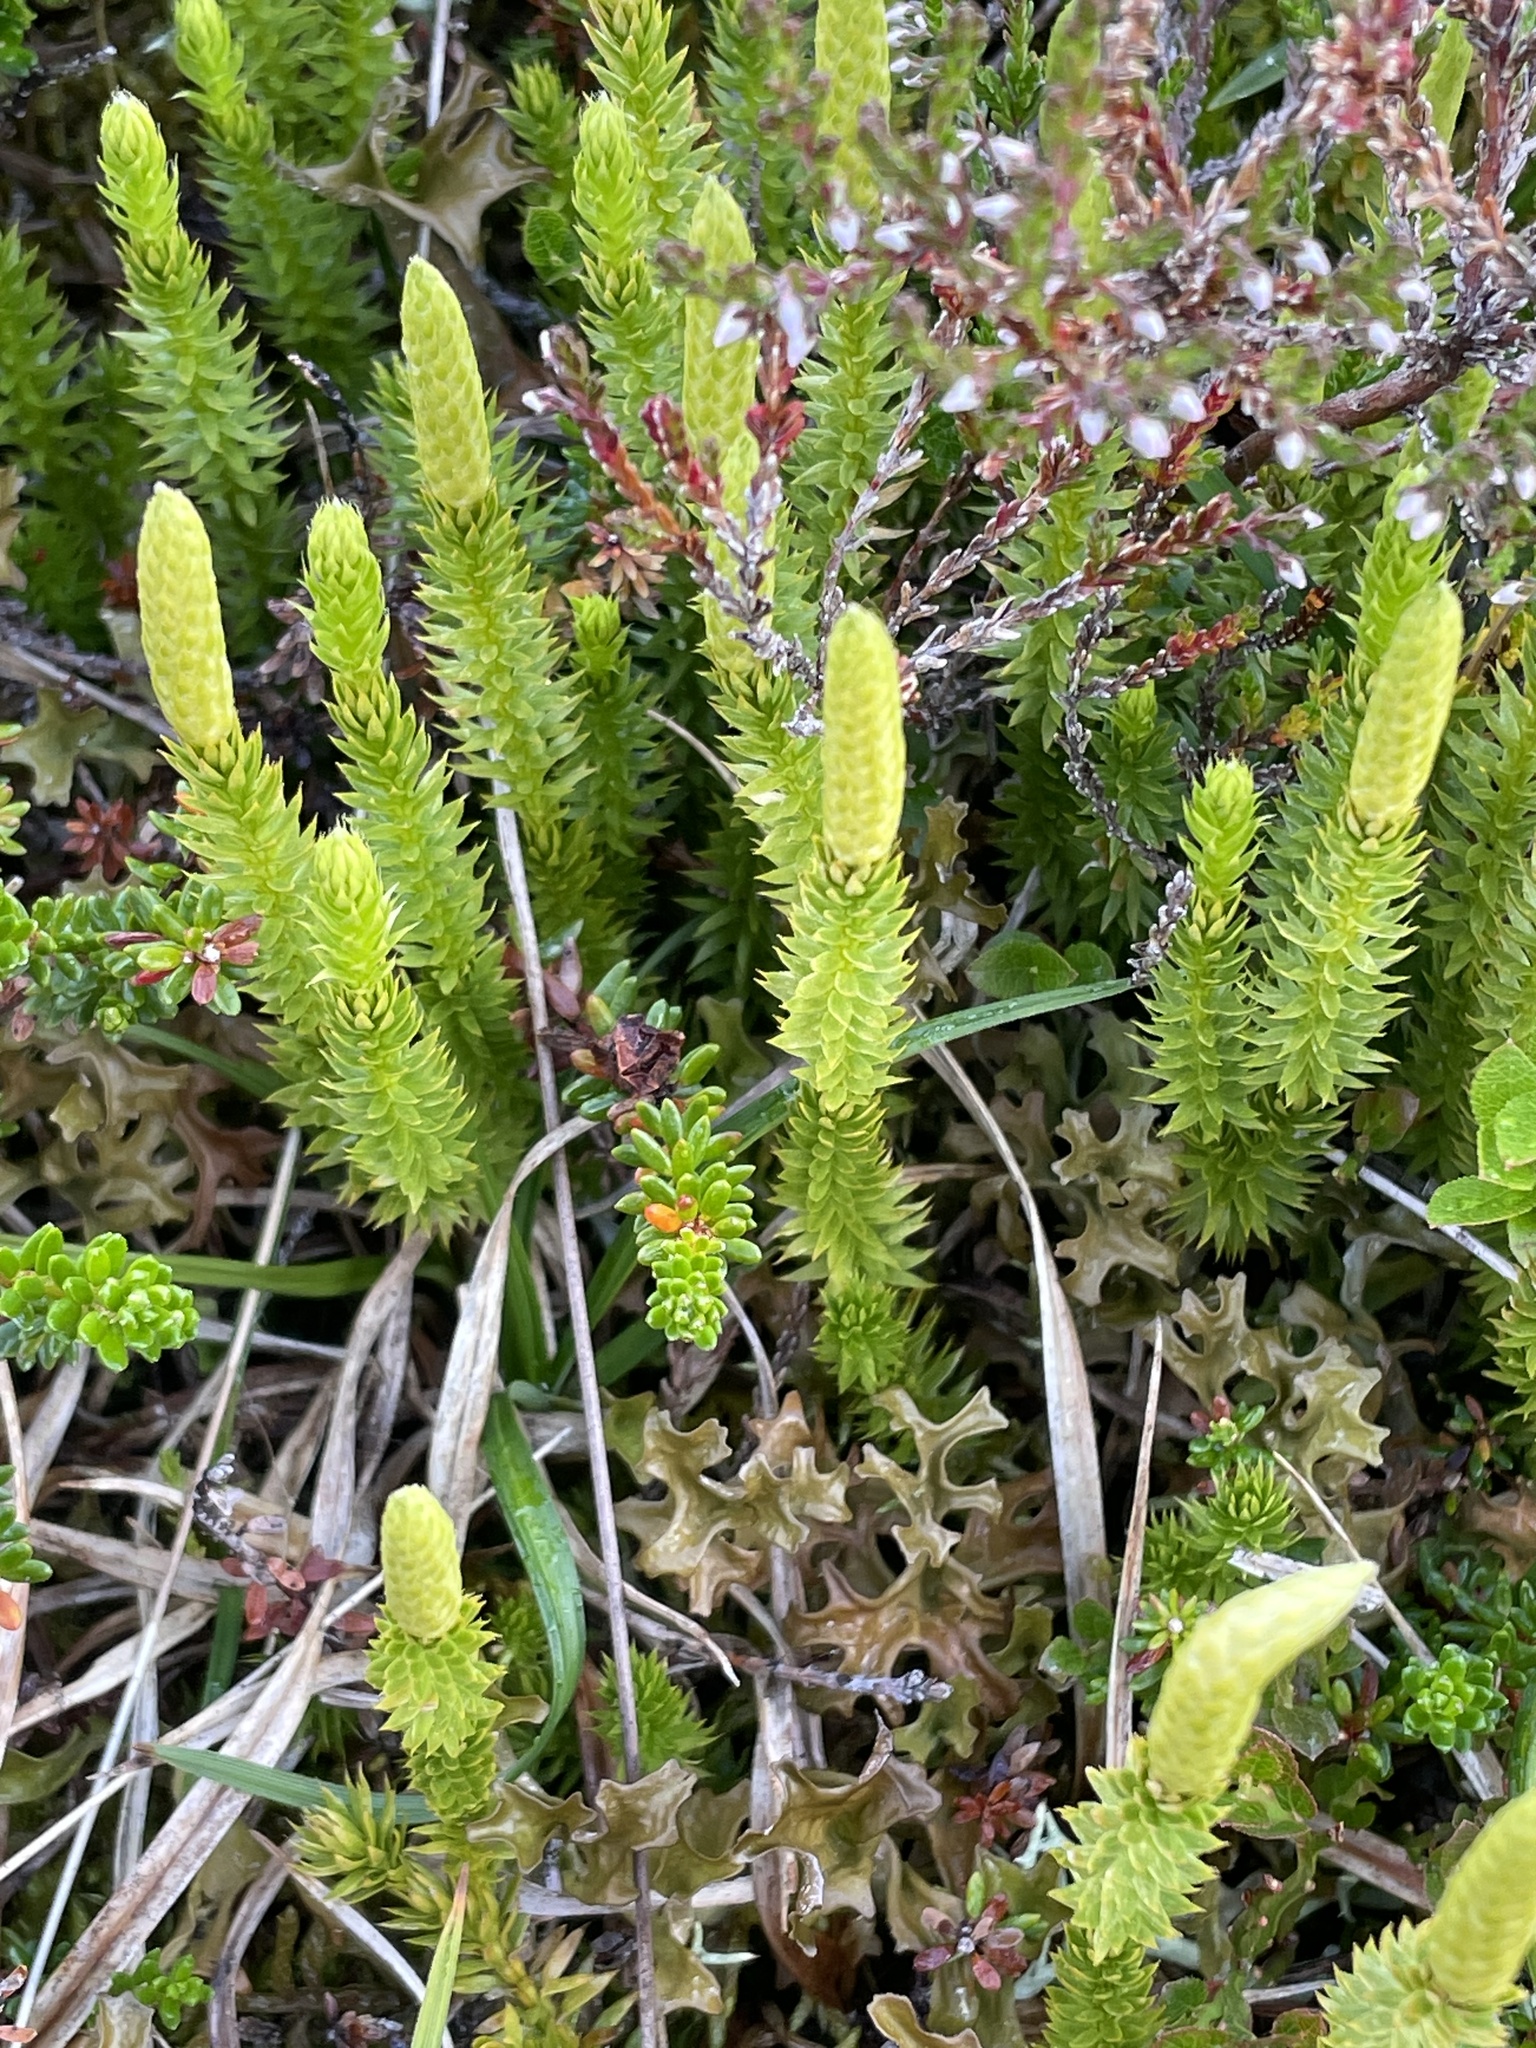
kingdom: Plantae
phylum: Tracheophyta
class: Lycopodiopsida
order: Lycopodiales
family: Lycopodiaceae
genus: Spinulum
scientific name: Spinulum annotinum
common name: Interrupted club-moss
